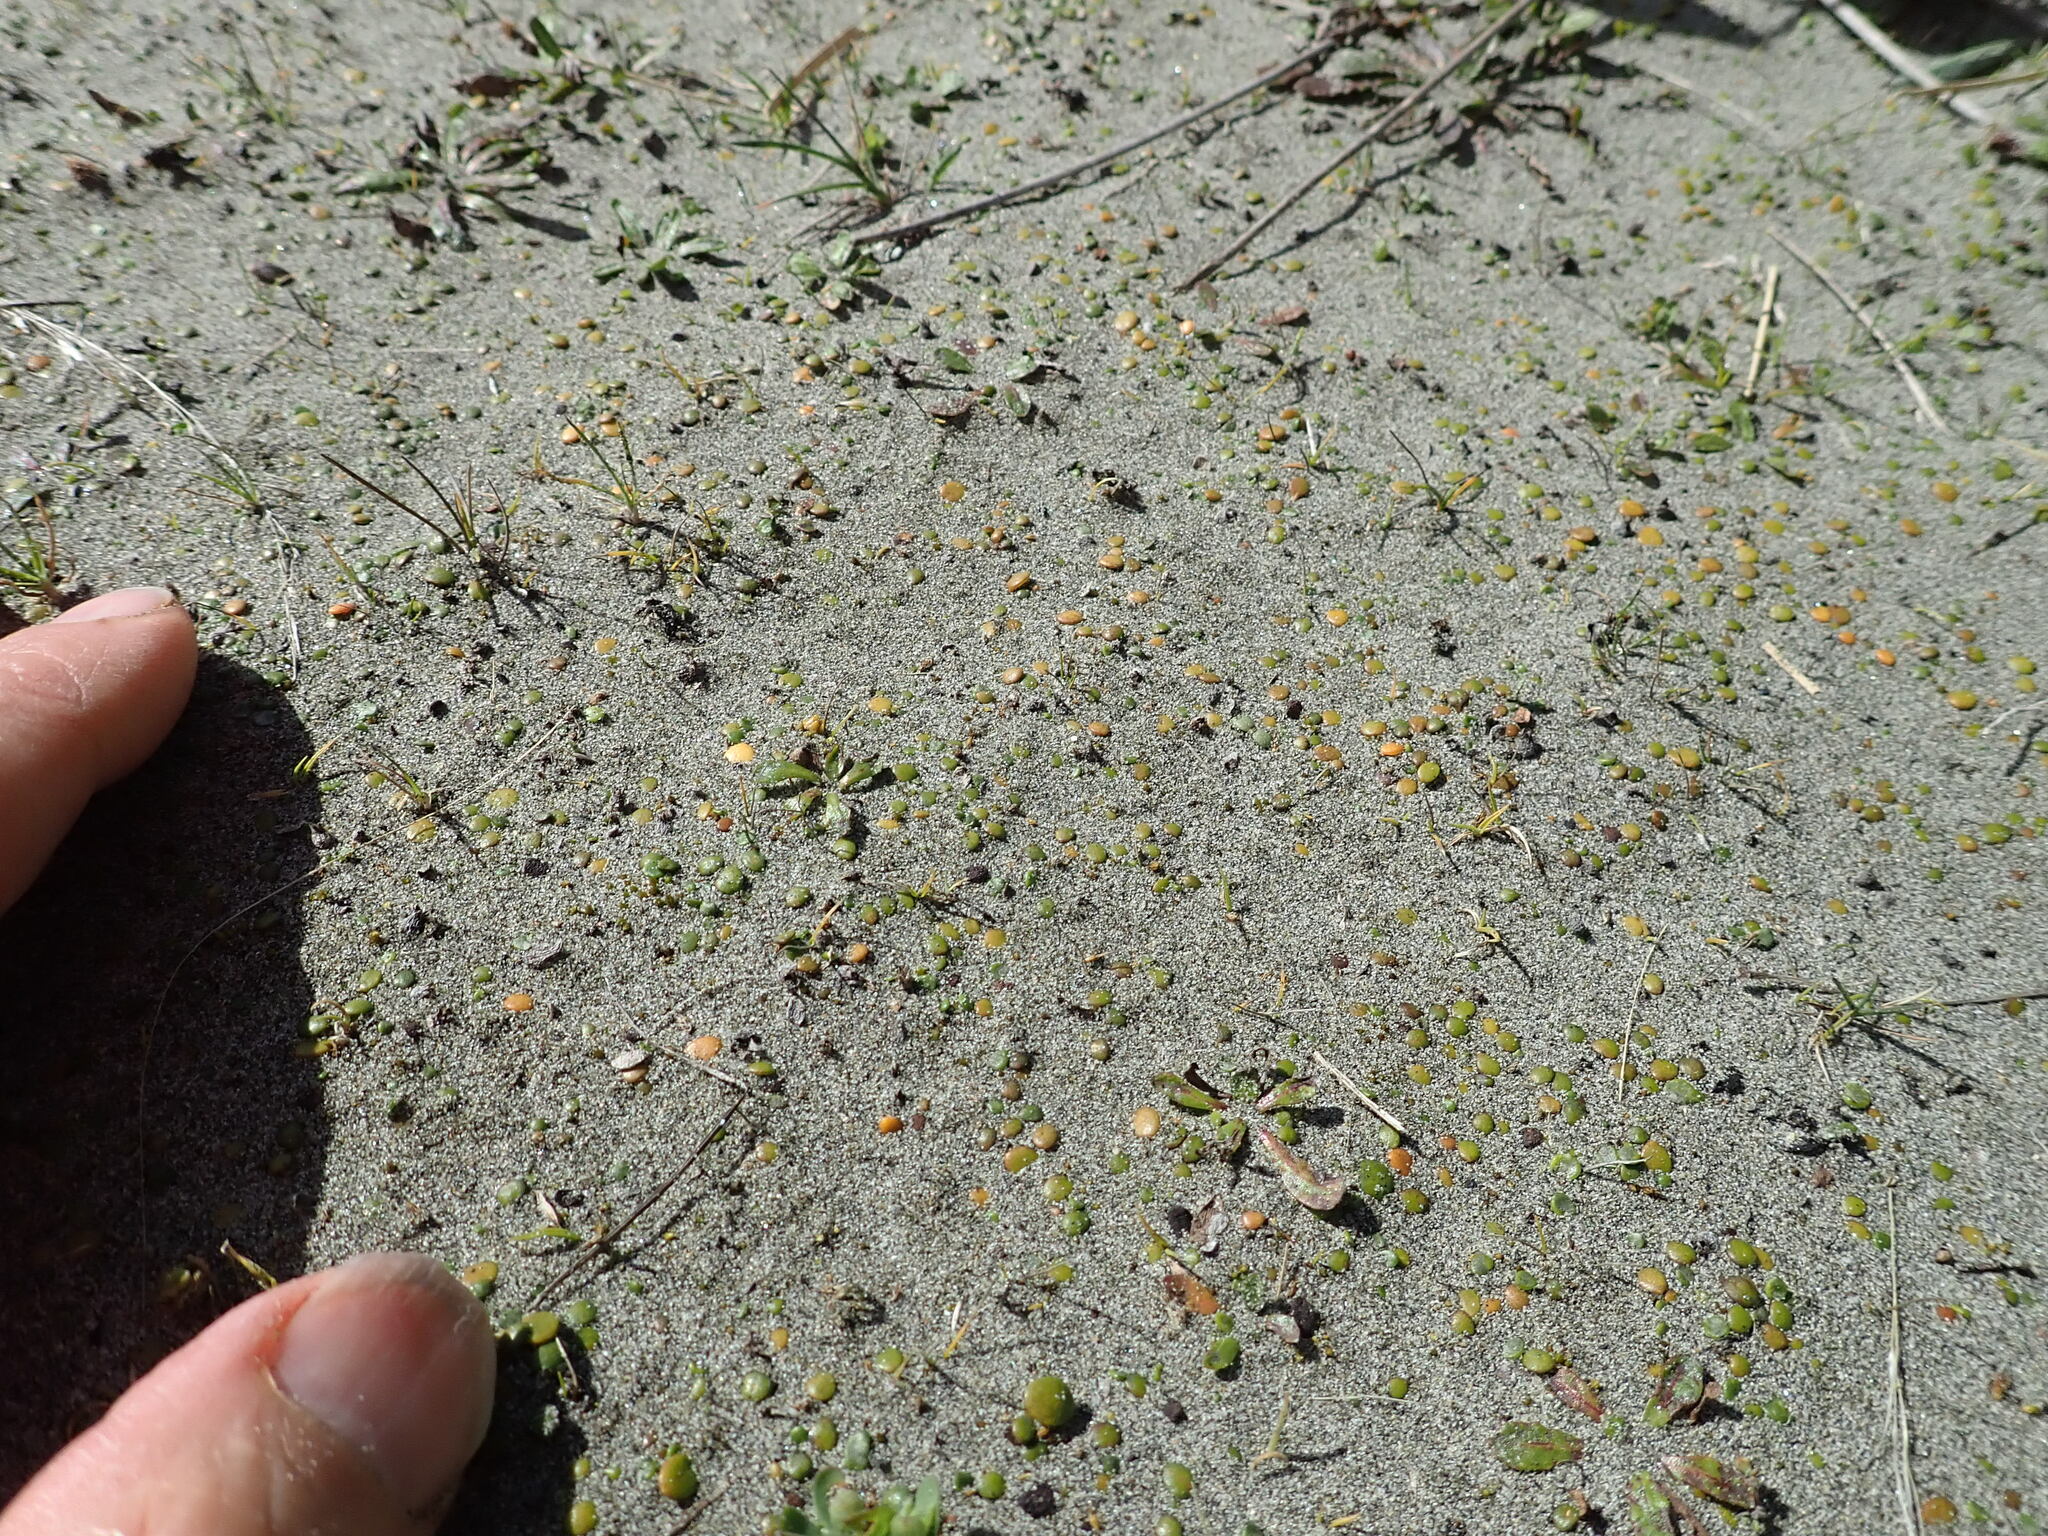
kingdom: Plantae
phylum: Tracheophyta
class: Magnoliopsida
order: Asterales
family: Goodeniaceae
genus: Goodenia
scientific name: Goodenia heenanii
